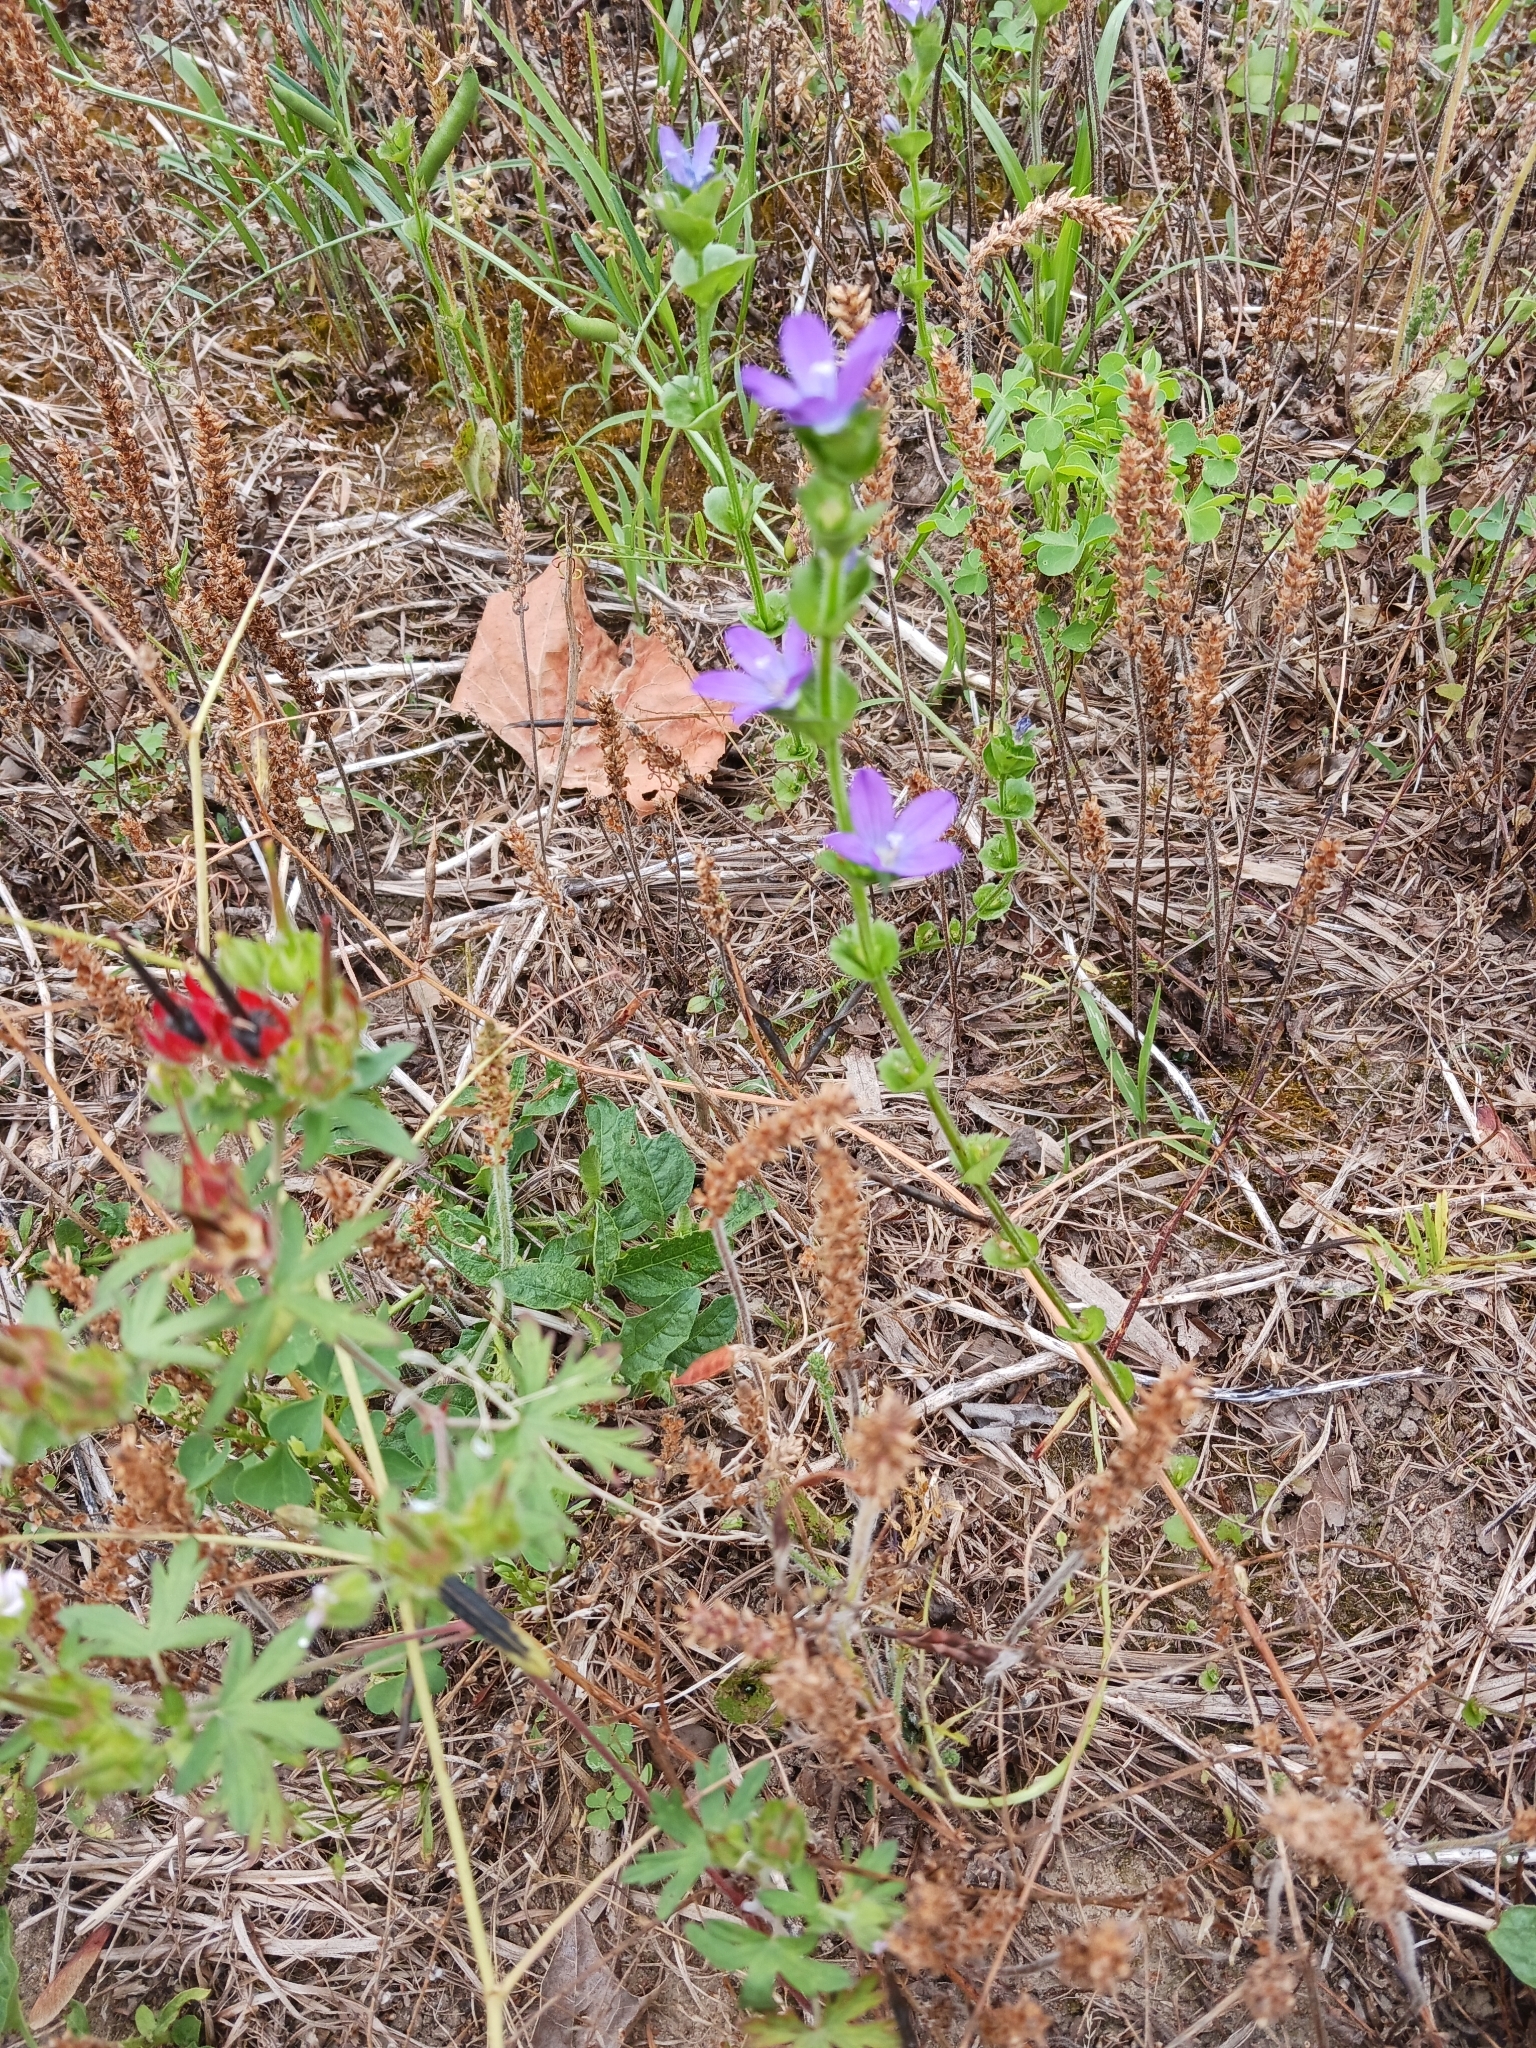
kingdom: Plantae
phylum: Tracheophyta
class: Magnoliopsida
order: Asterales
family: Campanulaceae
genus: Triodanis
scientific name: Triodanis perfoliata
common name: Clasping venus' looking-glass
